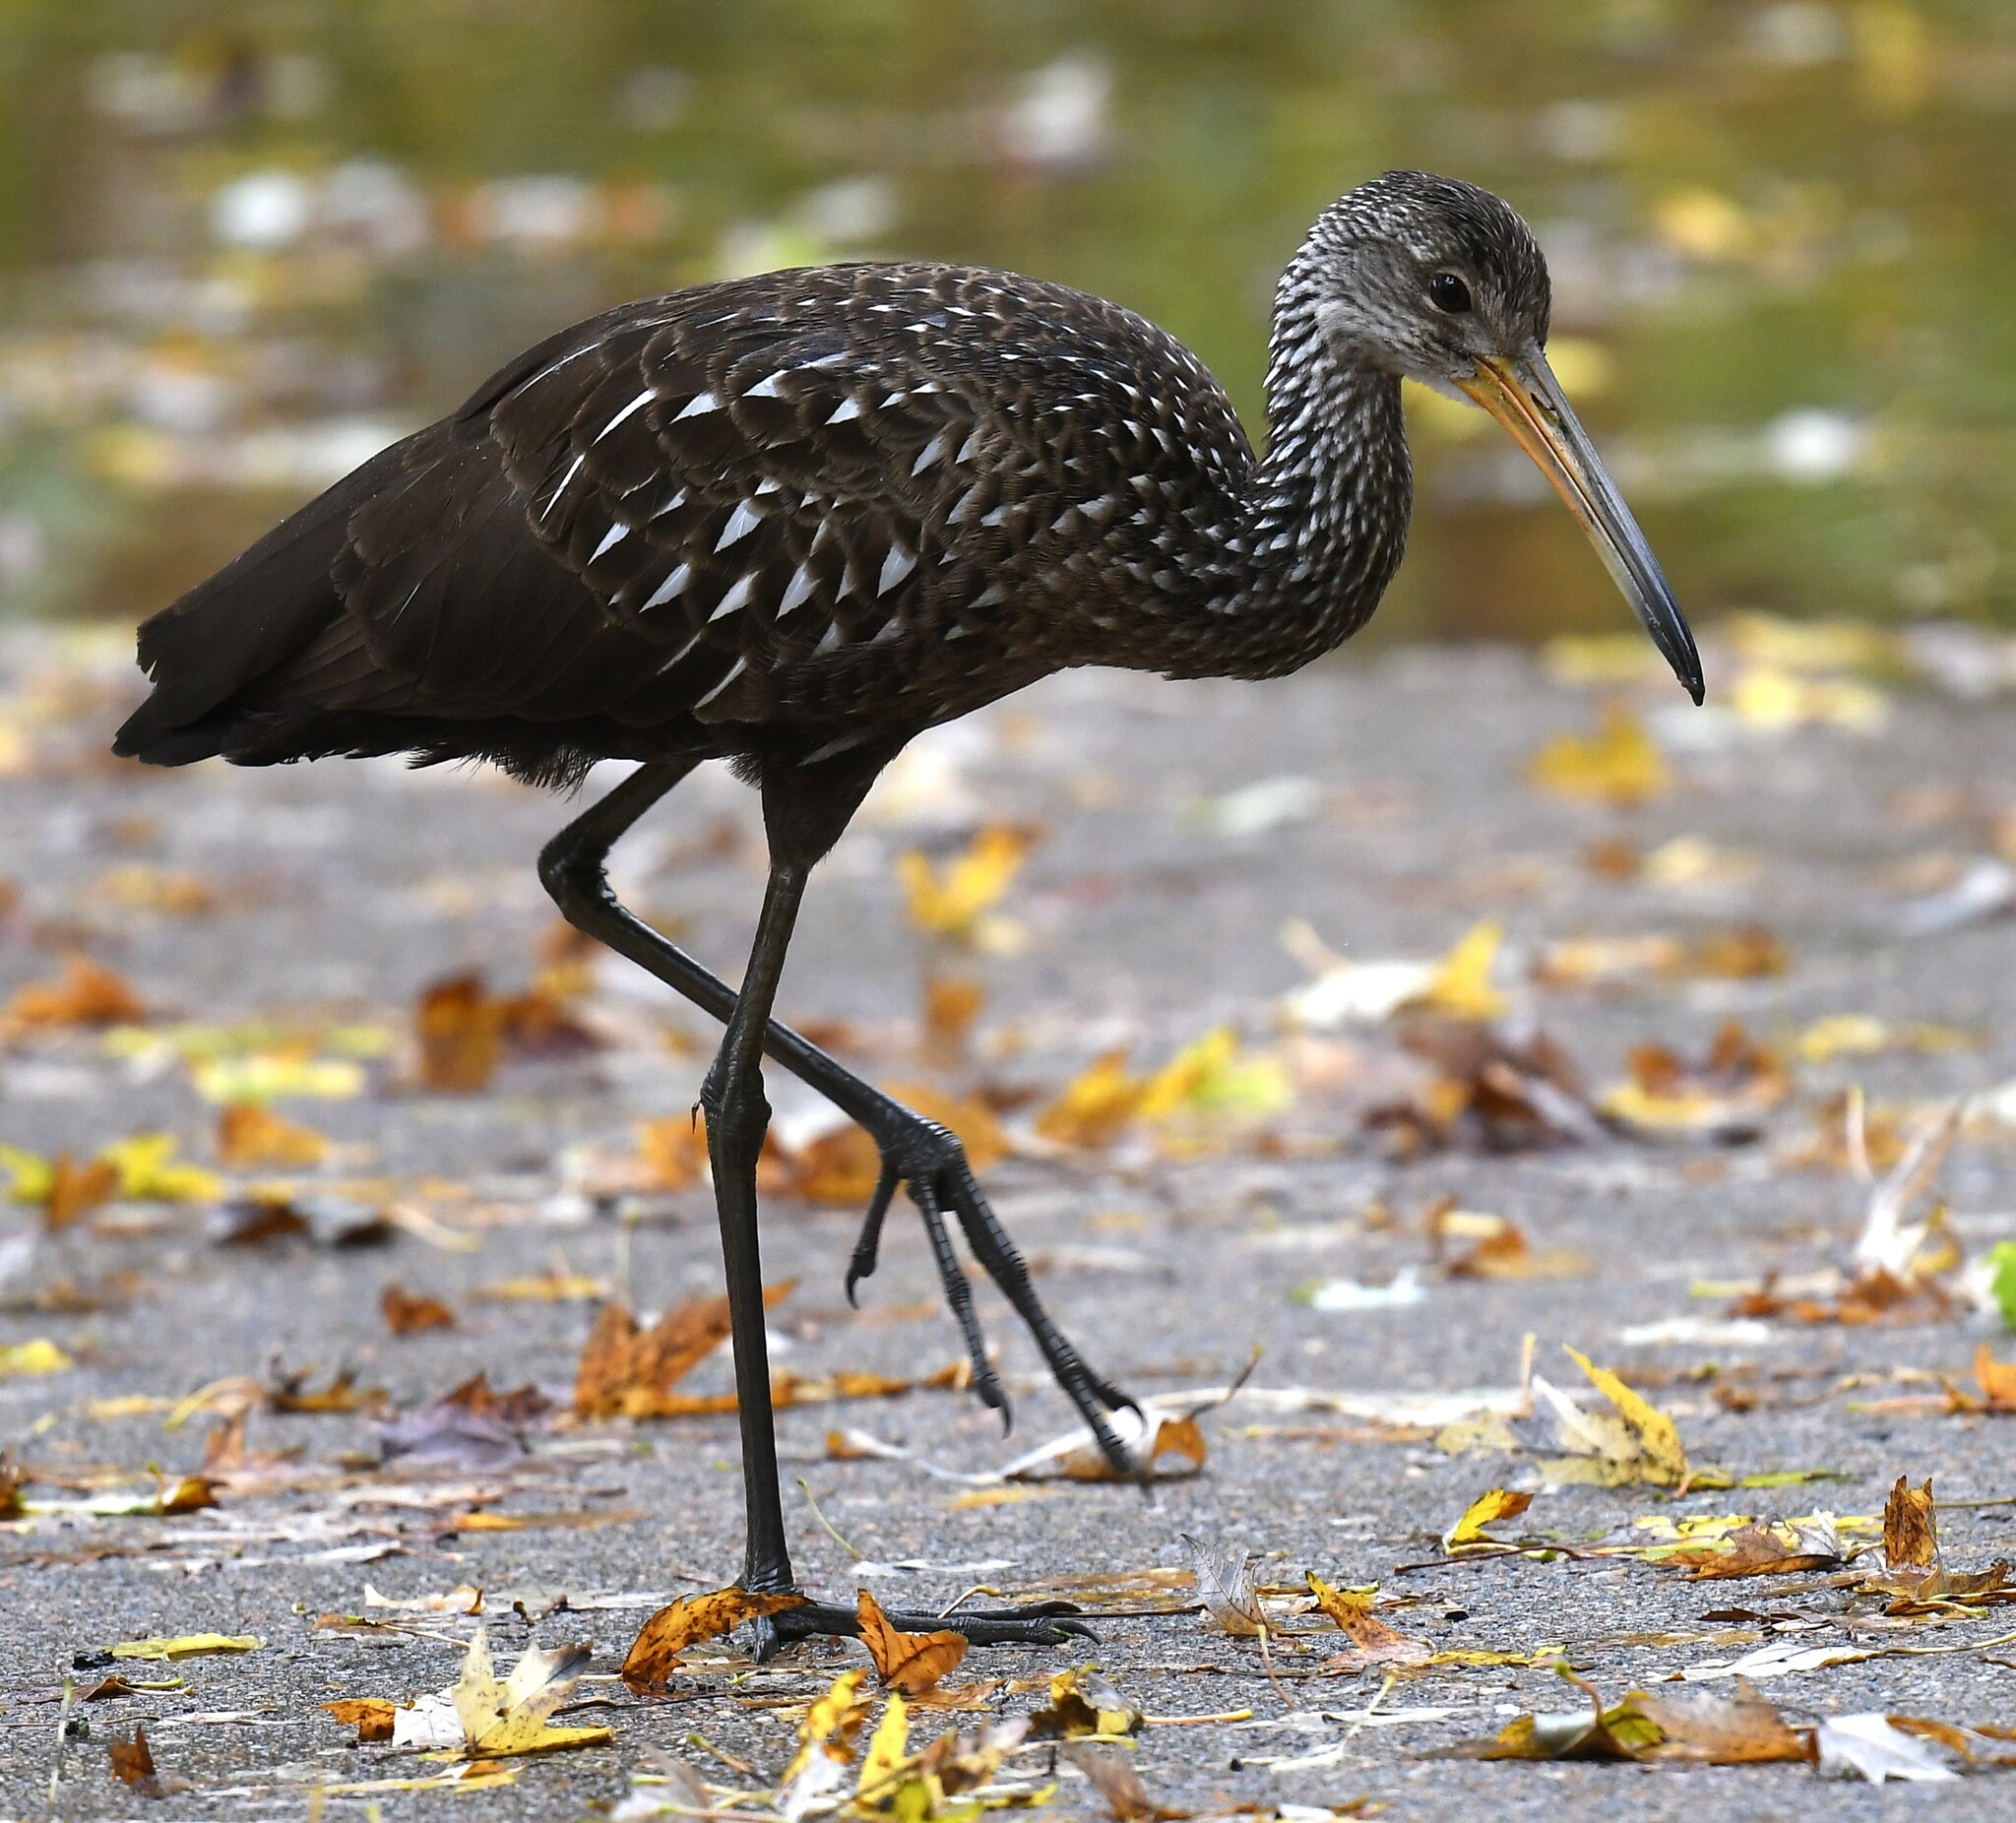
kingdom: Animalia
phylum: Chordata
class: Aves
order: Gruiformes
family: Aramidae
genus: Aramus
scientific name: Aramus guarauna
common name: Limpkin
